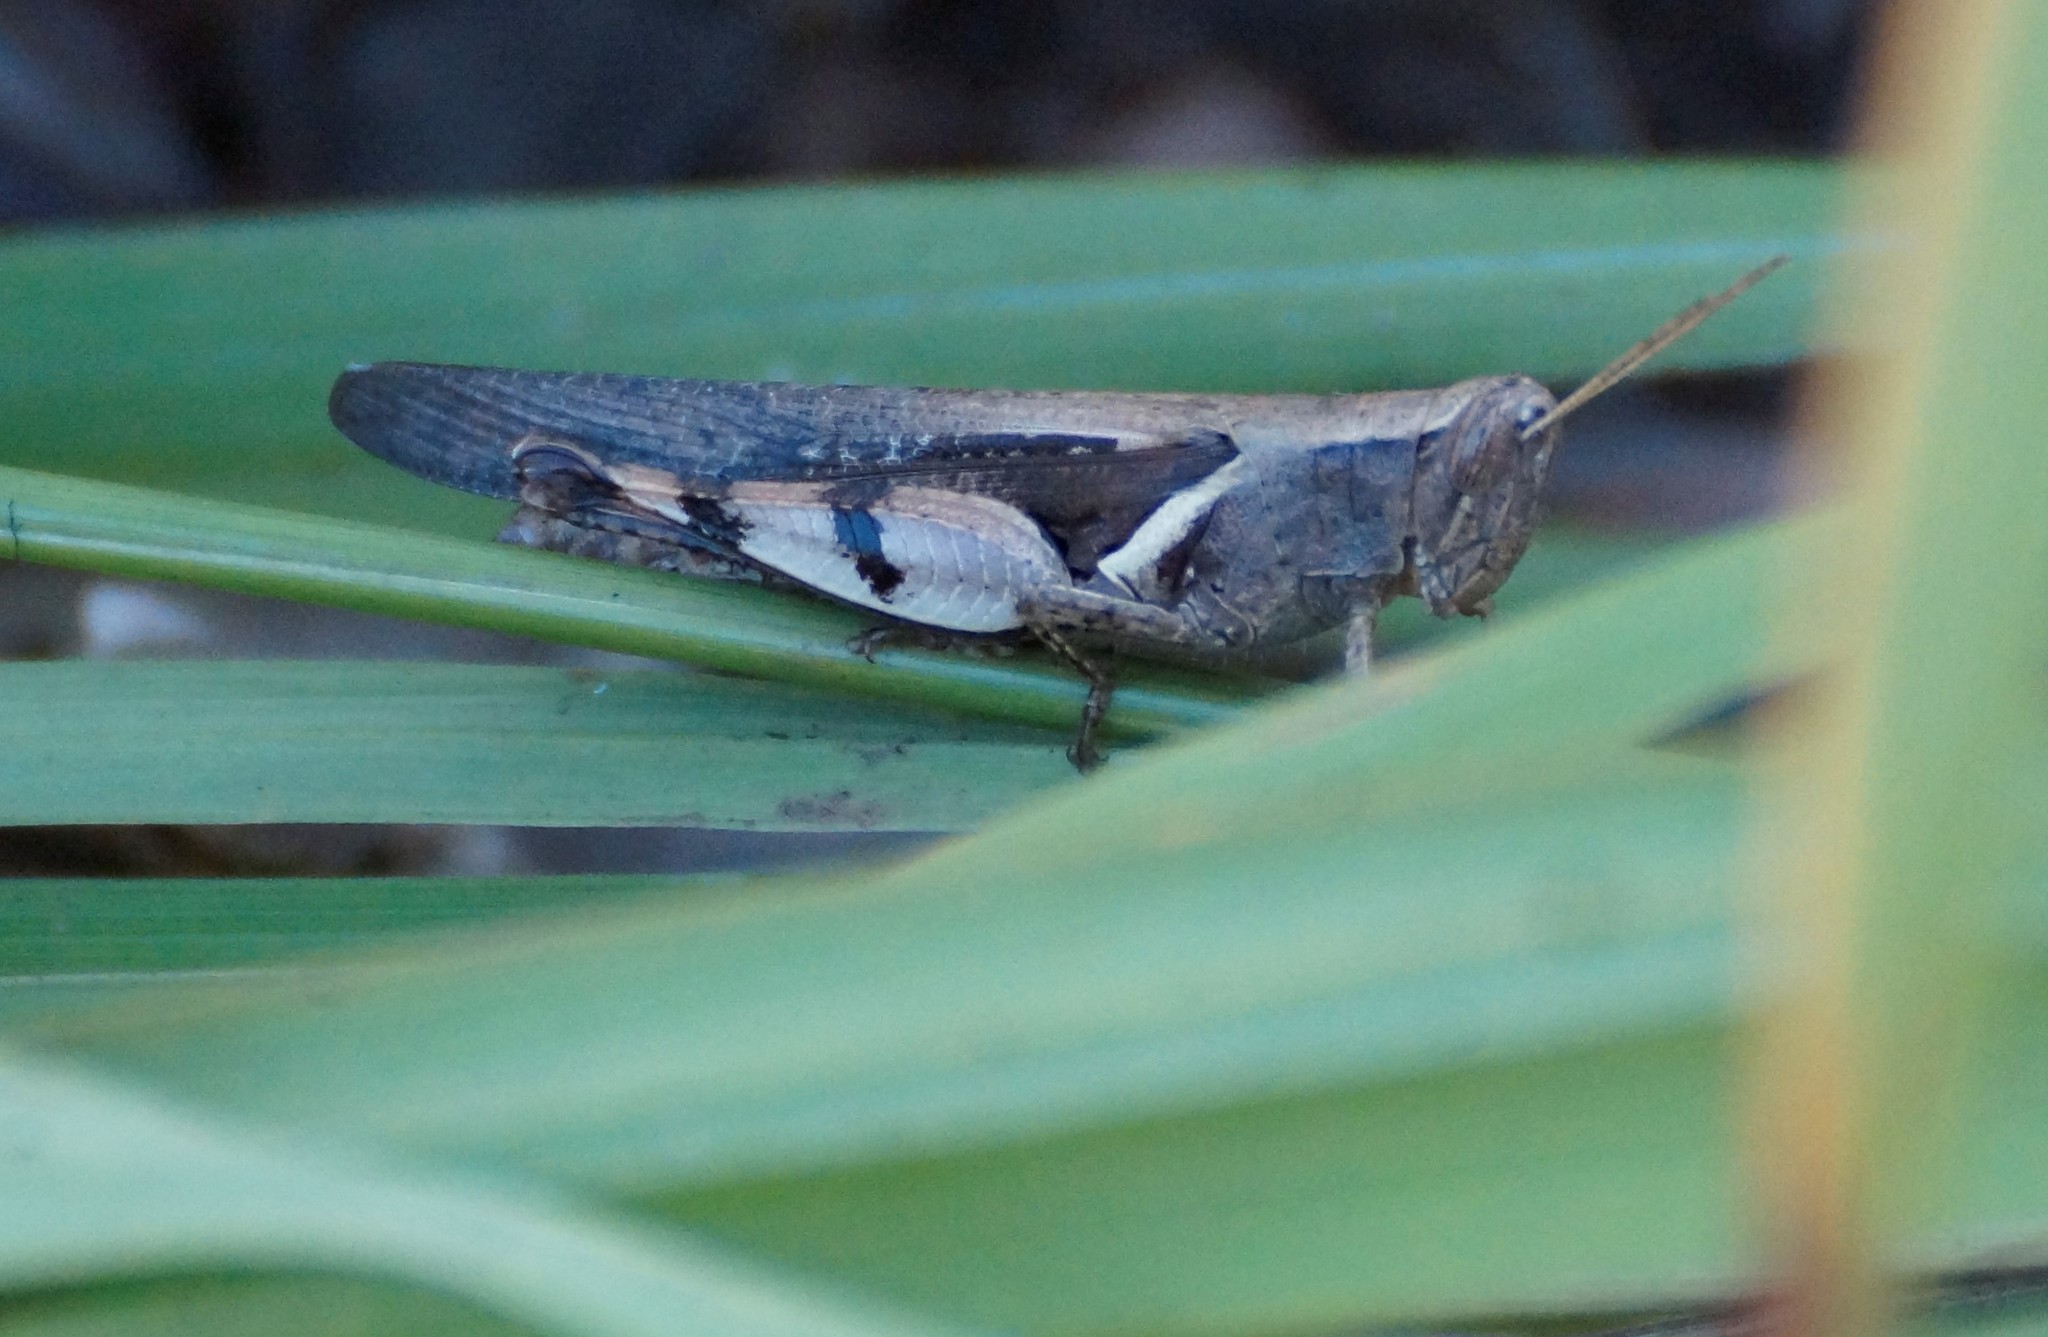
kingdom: Animalia
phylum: Arthropoda
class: Insecta
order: Orthoptera
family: Acrididae
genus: Stenocatantops
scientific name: Stenocatantops angustifrons
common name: Common tropical sharptail
